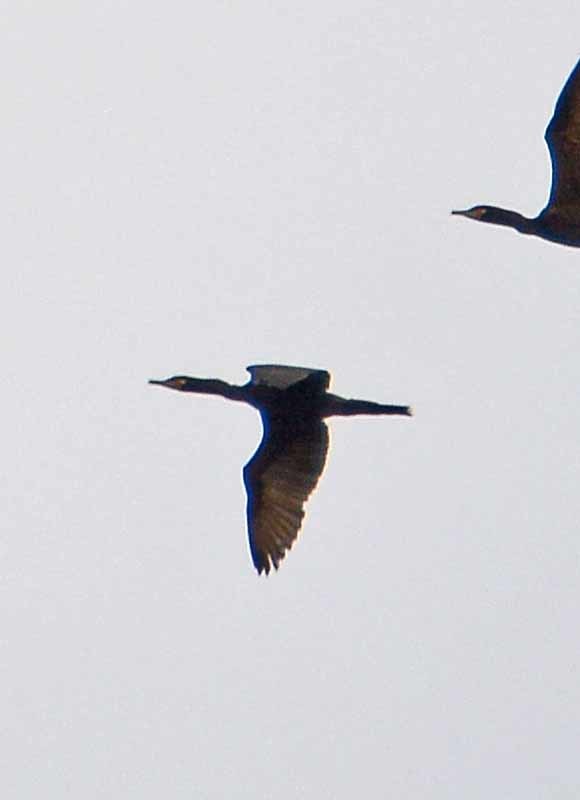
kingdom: Animalia
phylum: Chordata
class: Aves
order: Suliformes
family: Phalacrocoracidae
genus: Phalacrocorax
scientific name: Phalacrocorax brasilianus
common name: Neotropic cormorant
